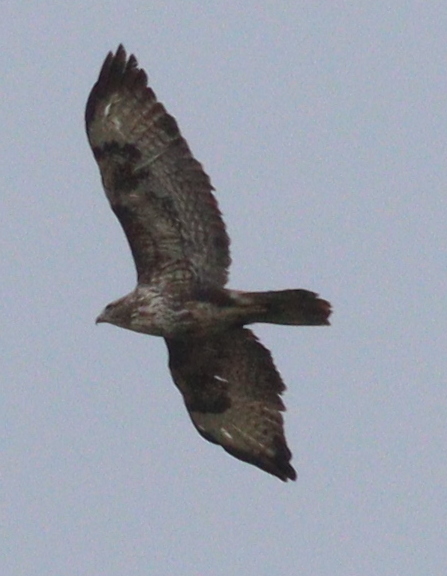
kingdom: Animalia
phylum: Chordata
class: Aves
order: Accipitriformes
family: Accipitridae
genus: Buteo
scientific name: Buteo buteo
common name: Common buzzard
